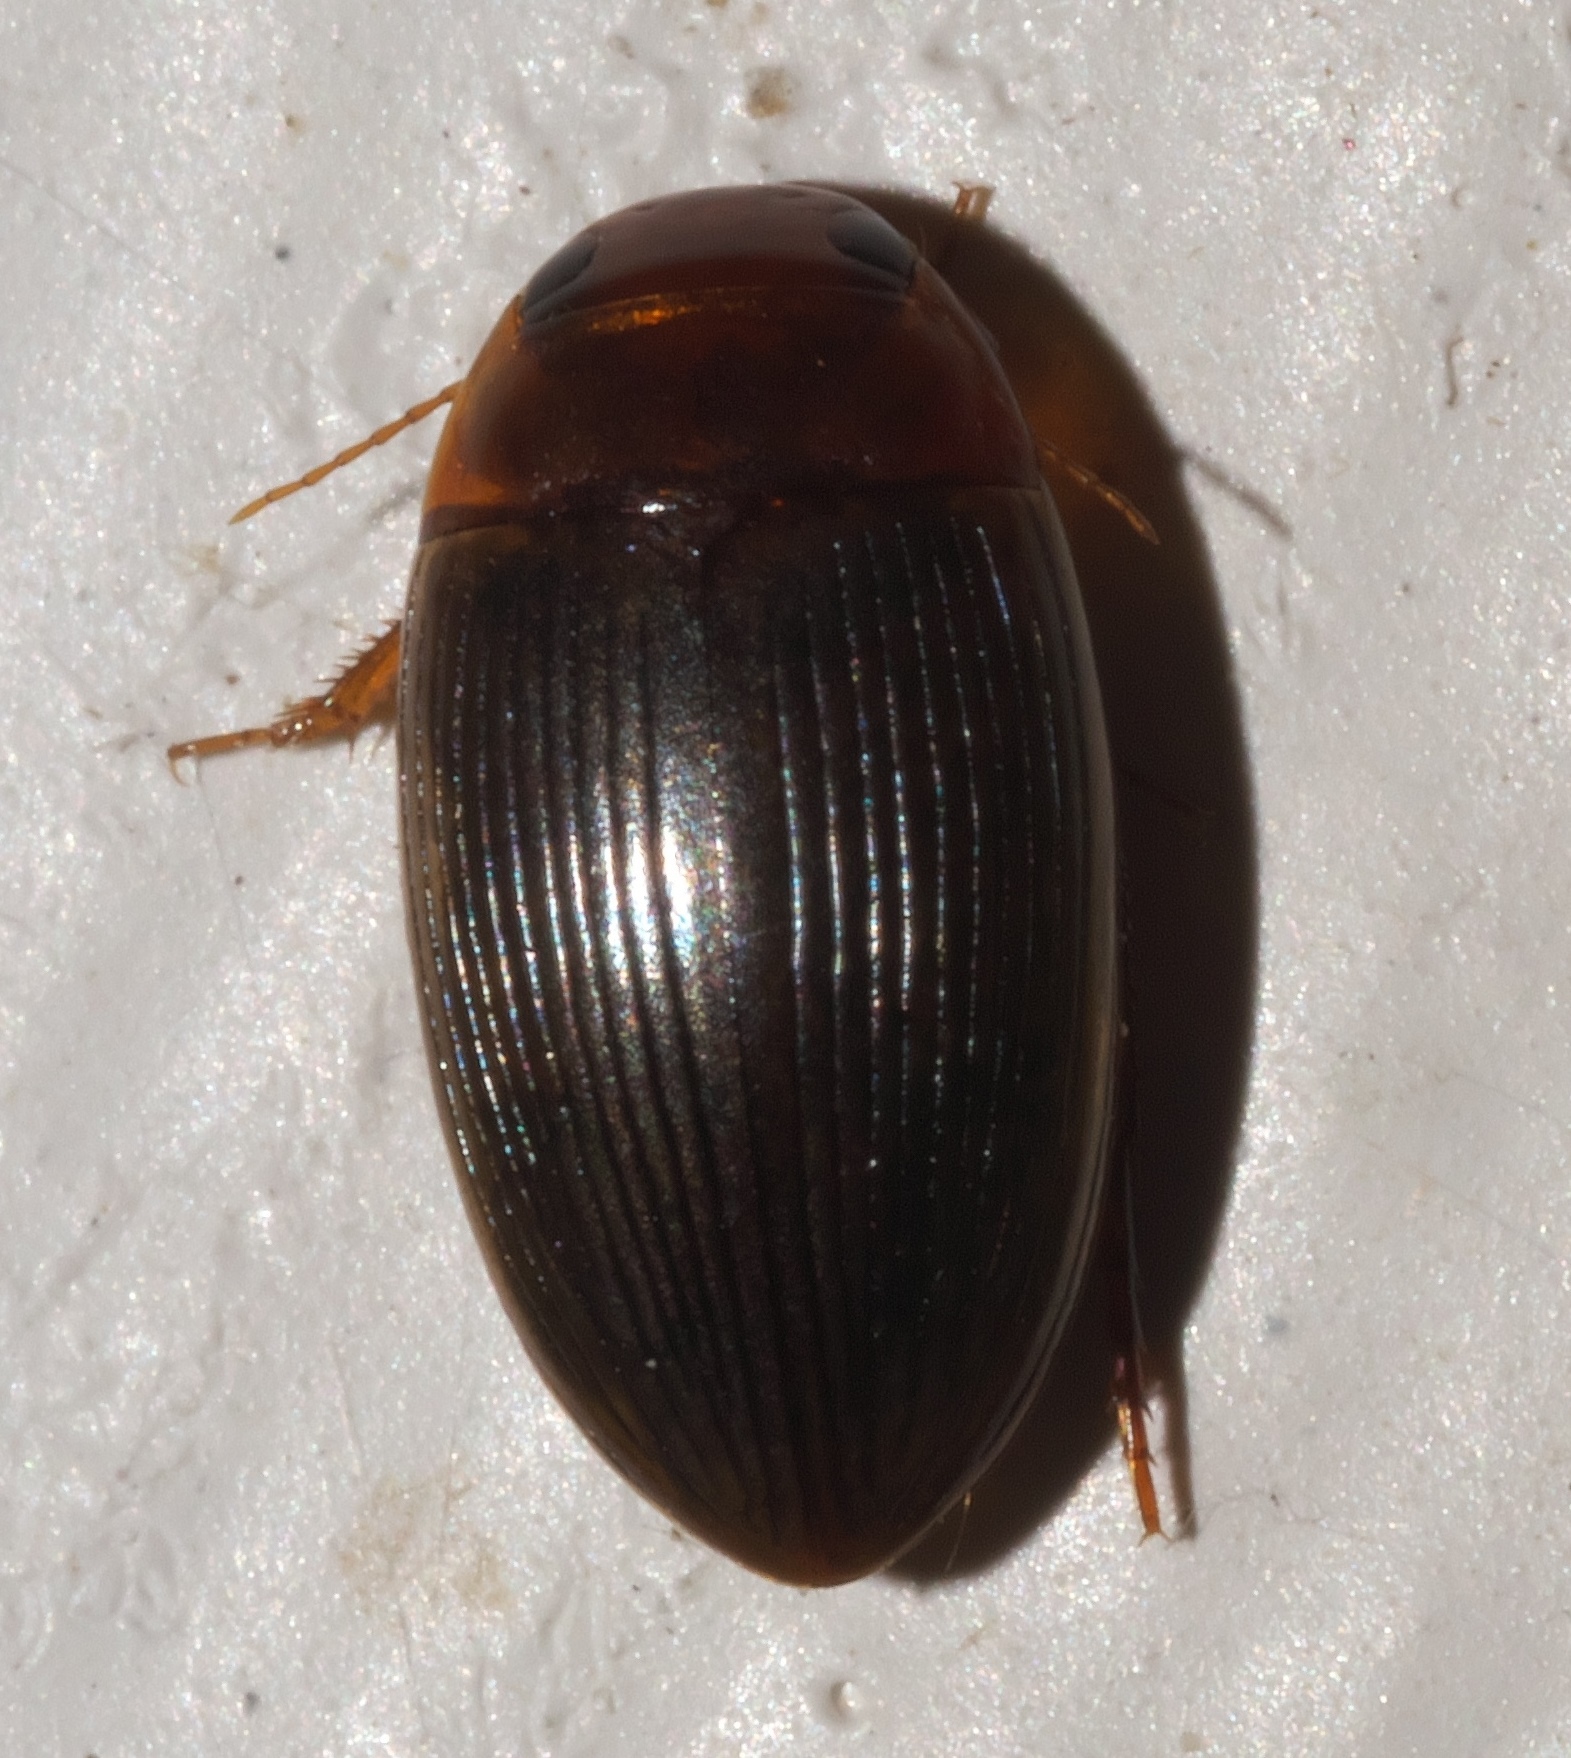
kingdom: Animalia
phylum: Arthropoda
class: Insecta
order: Coleoptera
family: Dytiscidae
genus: Copelatus
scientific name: Copelatus glyphicus
